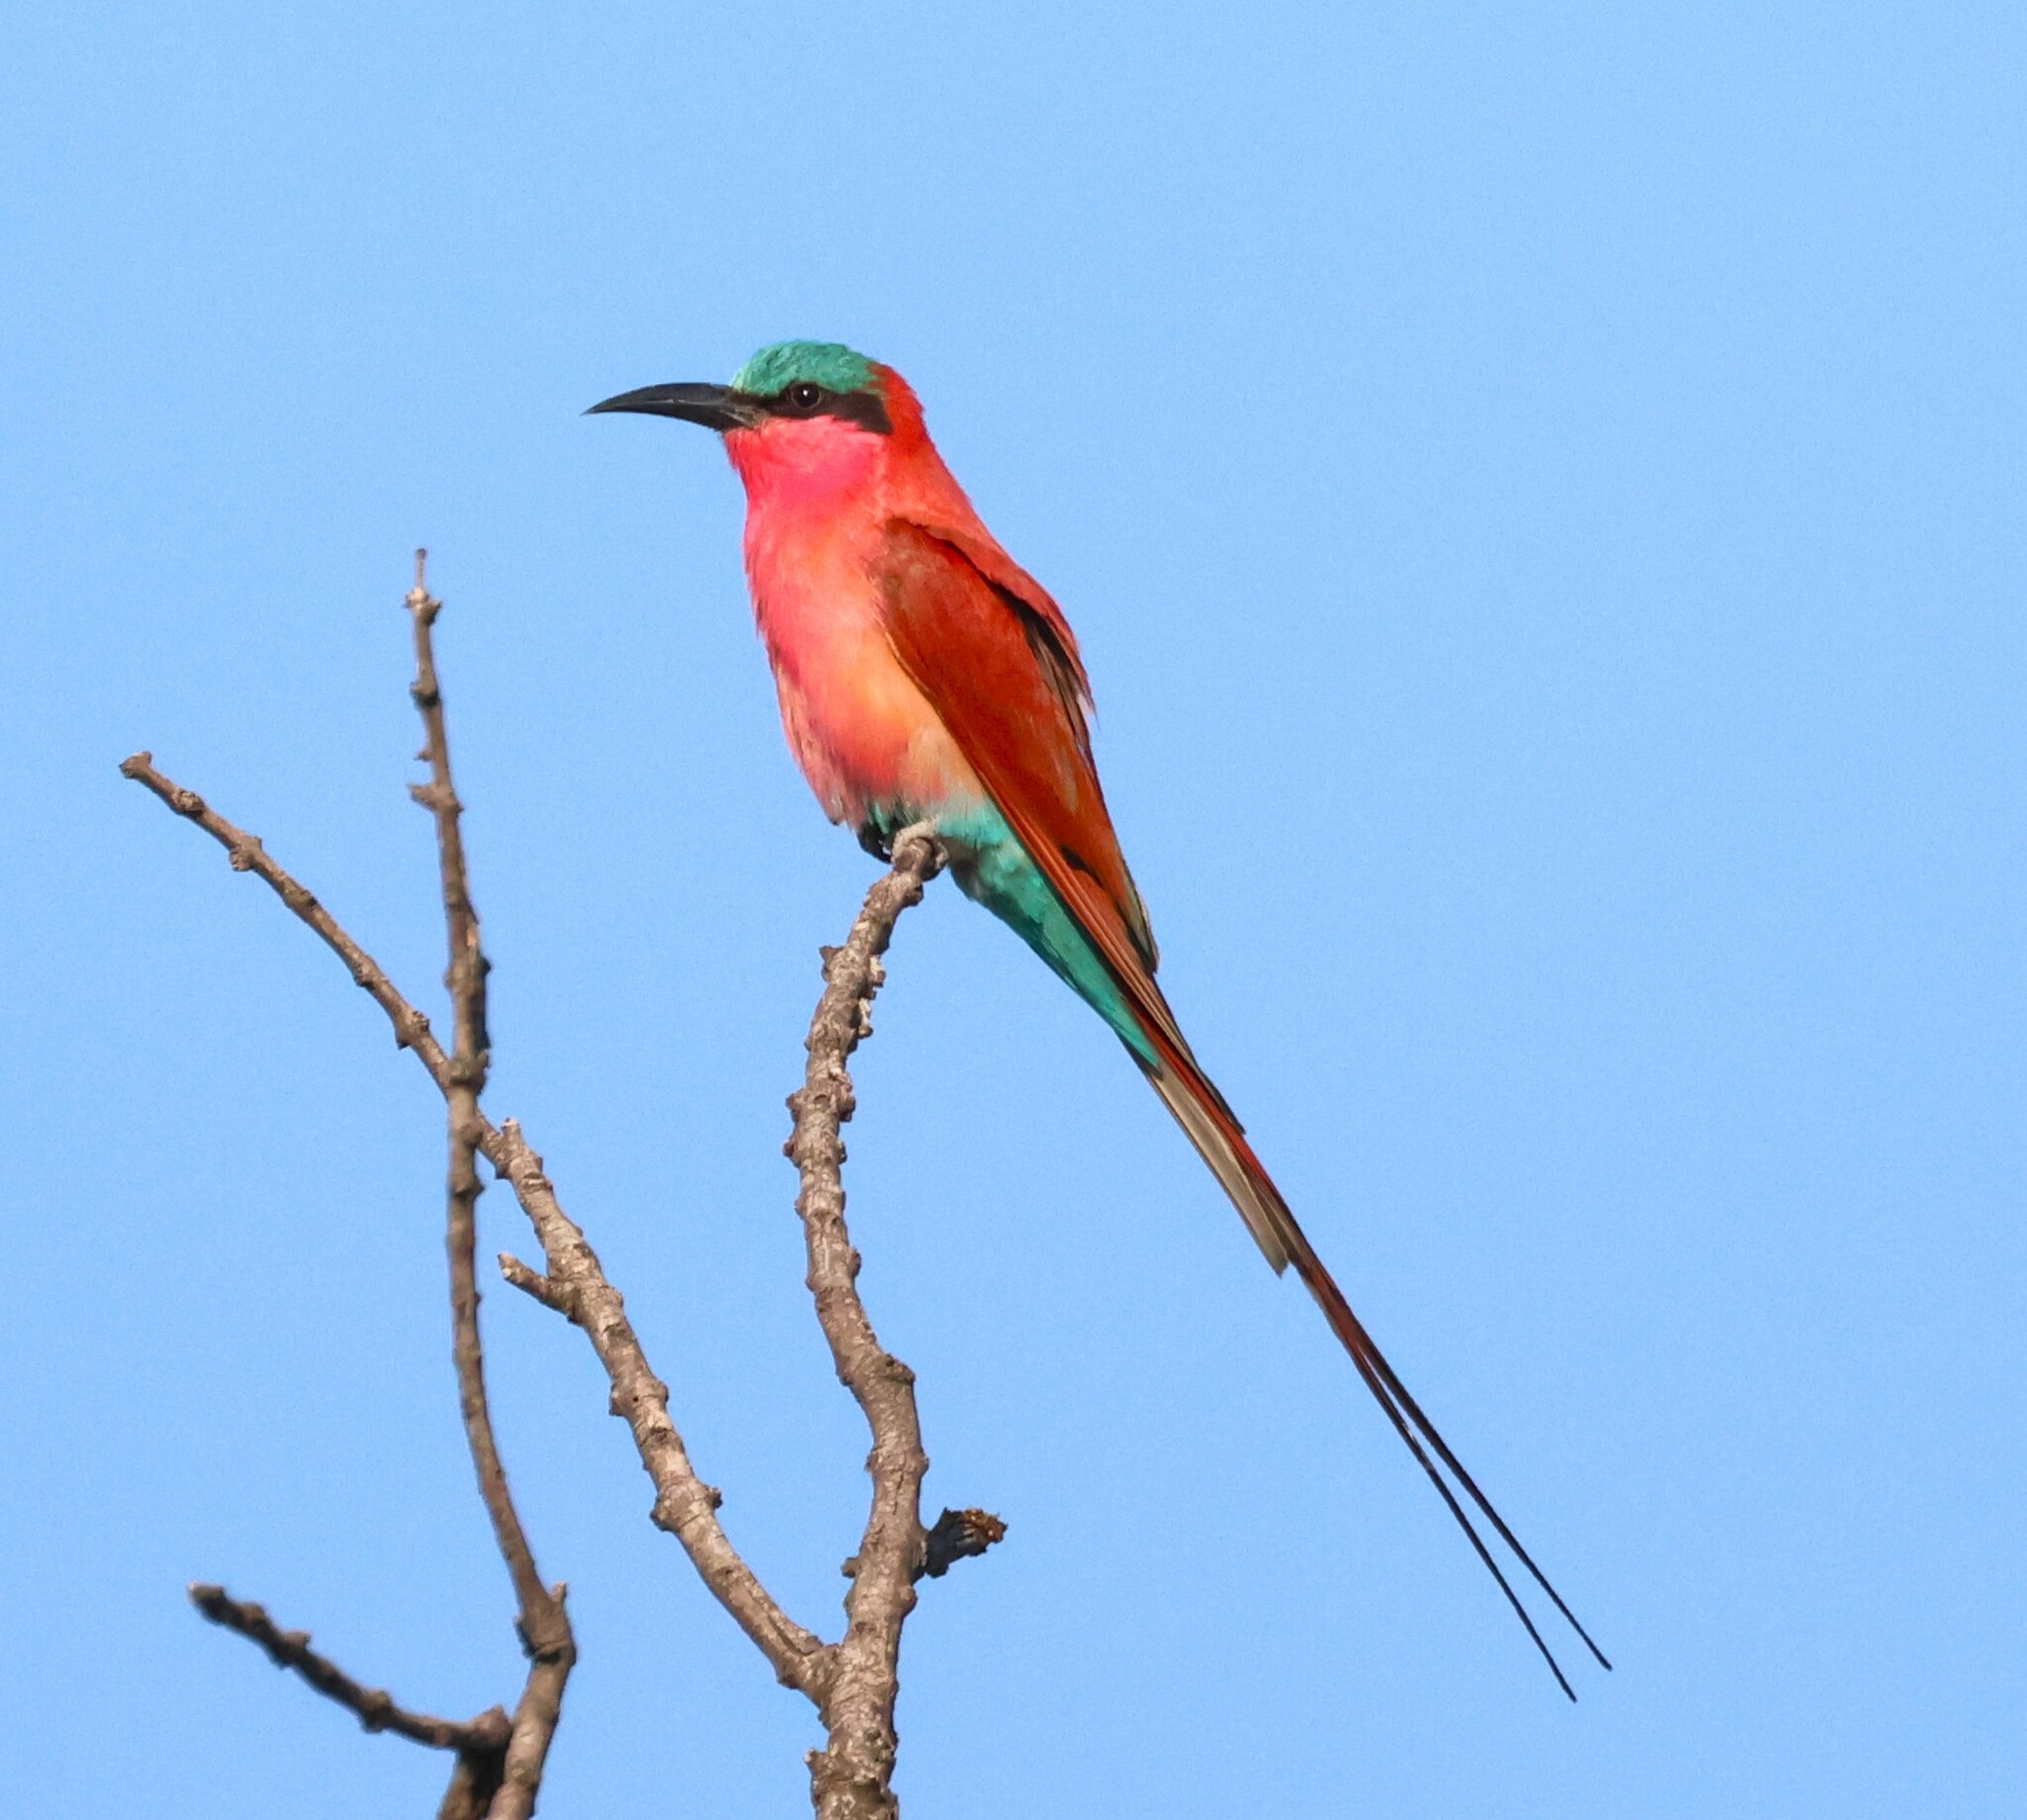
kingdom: Animalia
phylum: Chordata
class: Aves
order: Coraciiformes
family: Meropidae
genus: Merops
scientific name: Merops nubicoides
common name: Southern carmine bee-eater
